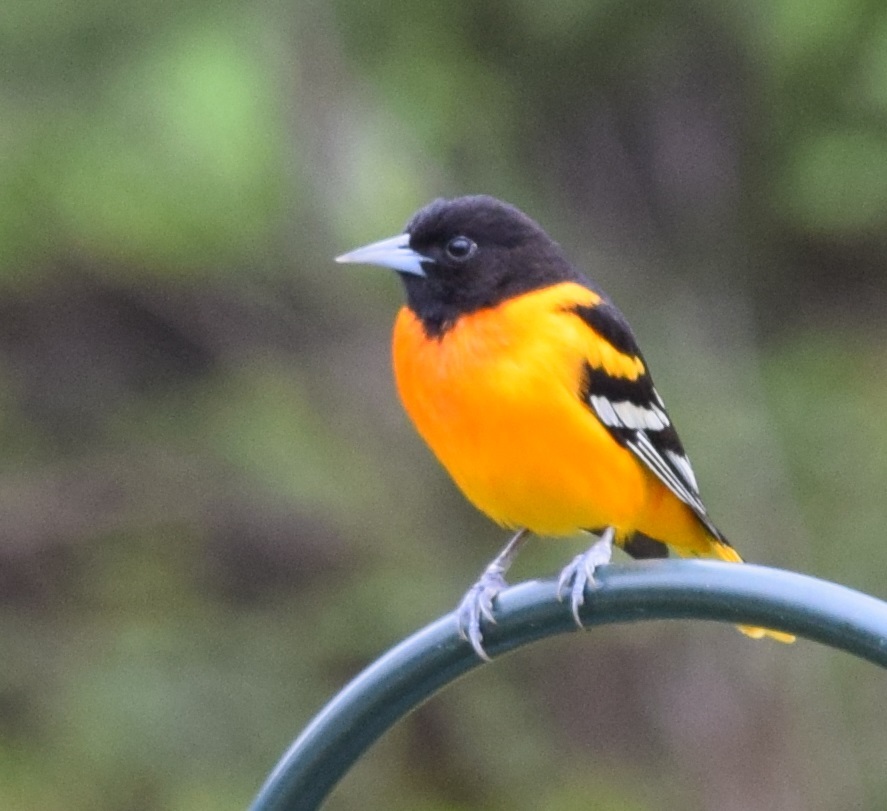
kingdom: Animalia
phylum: Chordata
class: Aves
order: Passeriformes
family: Icteridae
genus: Icterus
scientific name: Icterus galbula
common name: Baltimore oriole
